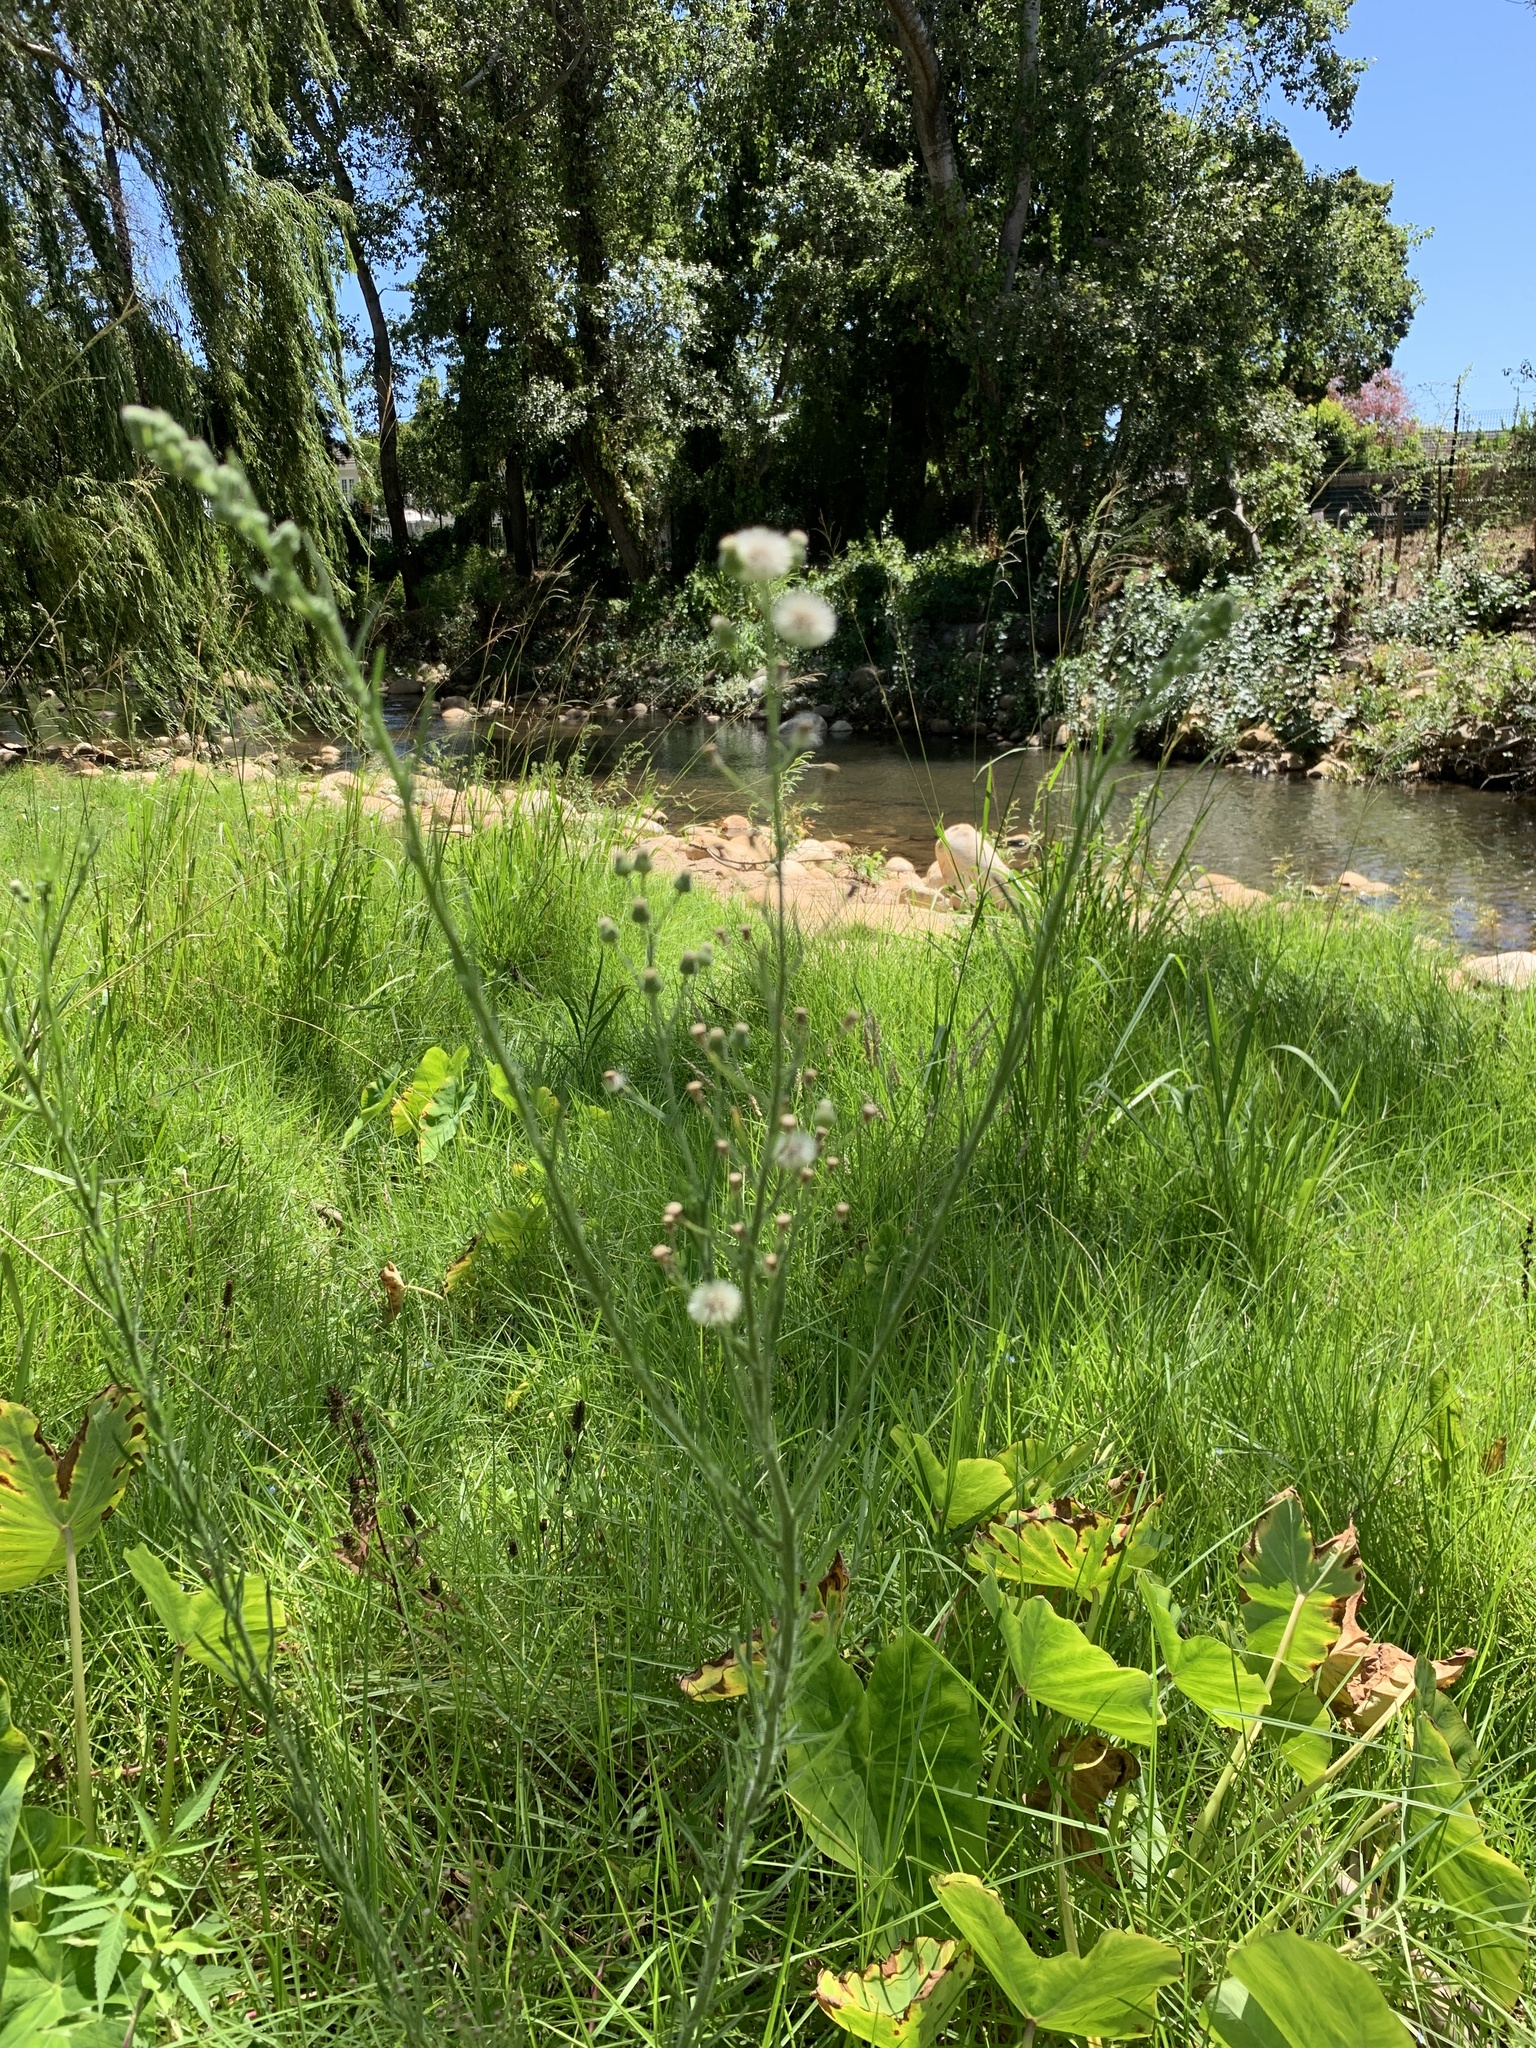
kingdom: Plantae
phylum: Tracheophyta
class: Magnoliopsida
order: Asterales
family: Asteraceae
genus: Erigeron
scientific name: Erigeron bonariensis
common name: Argentine fleabane
